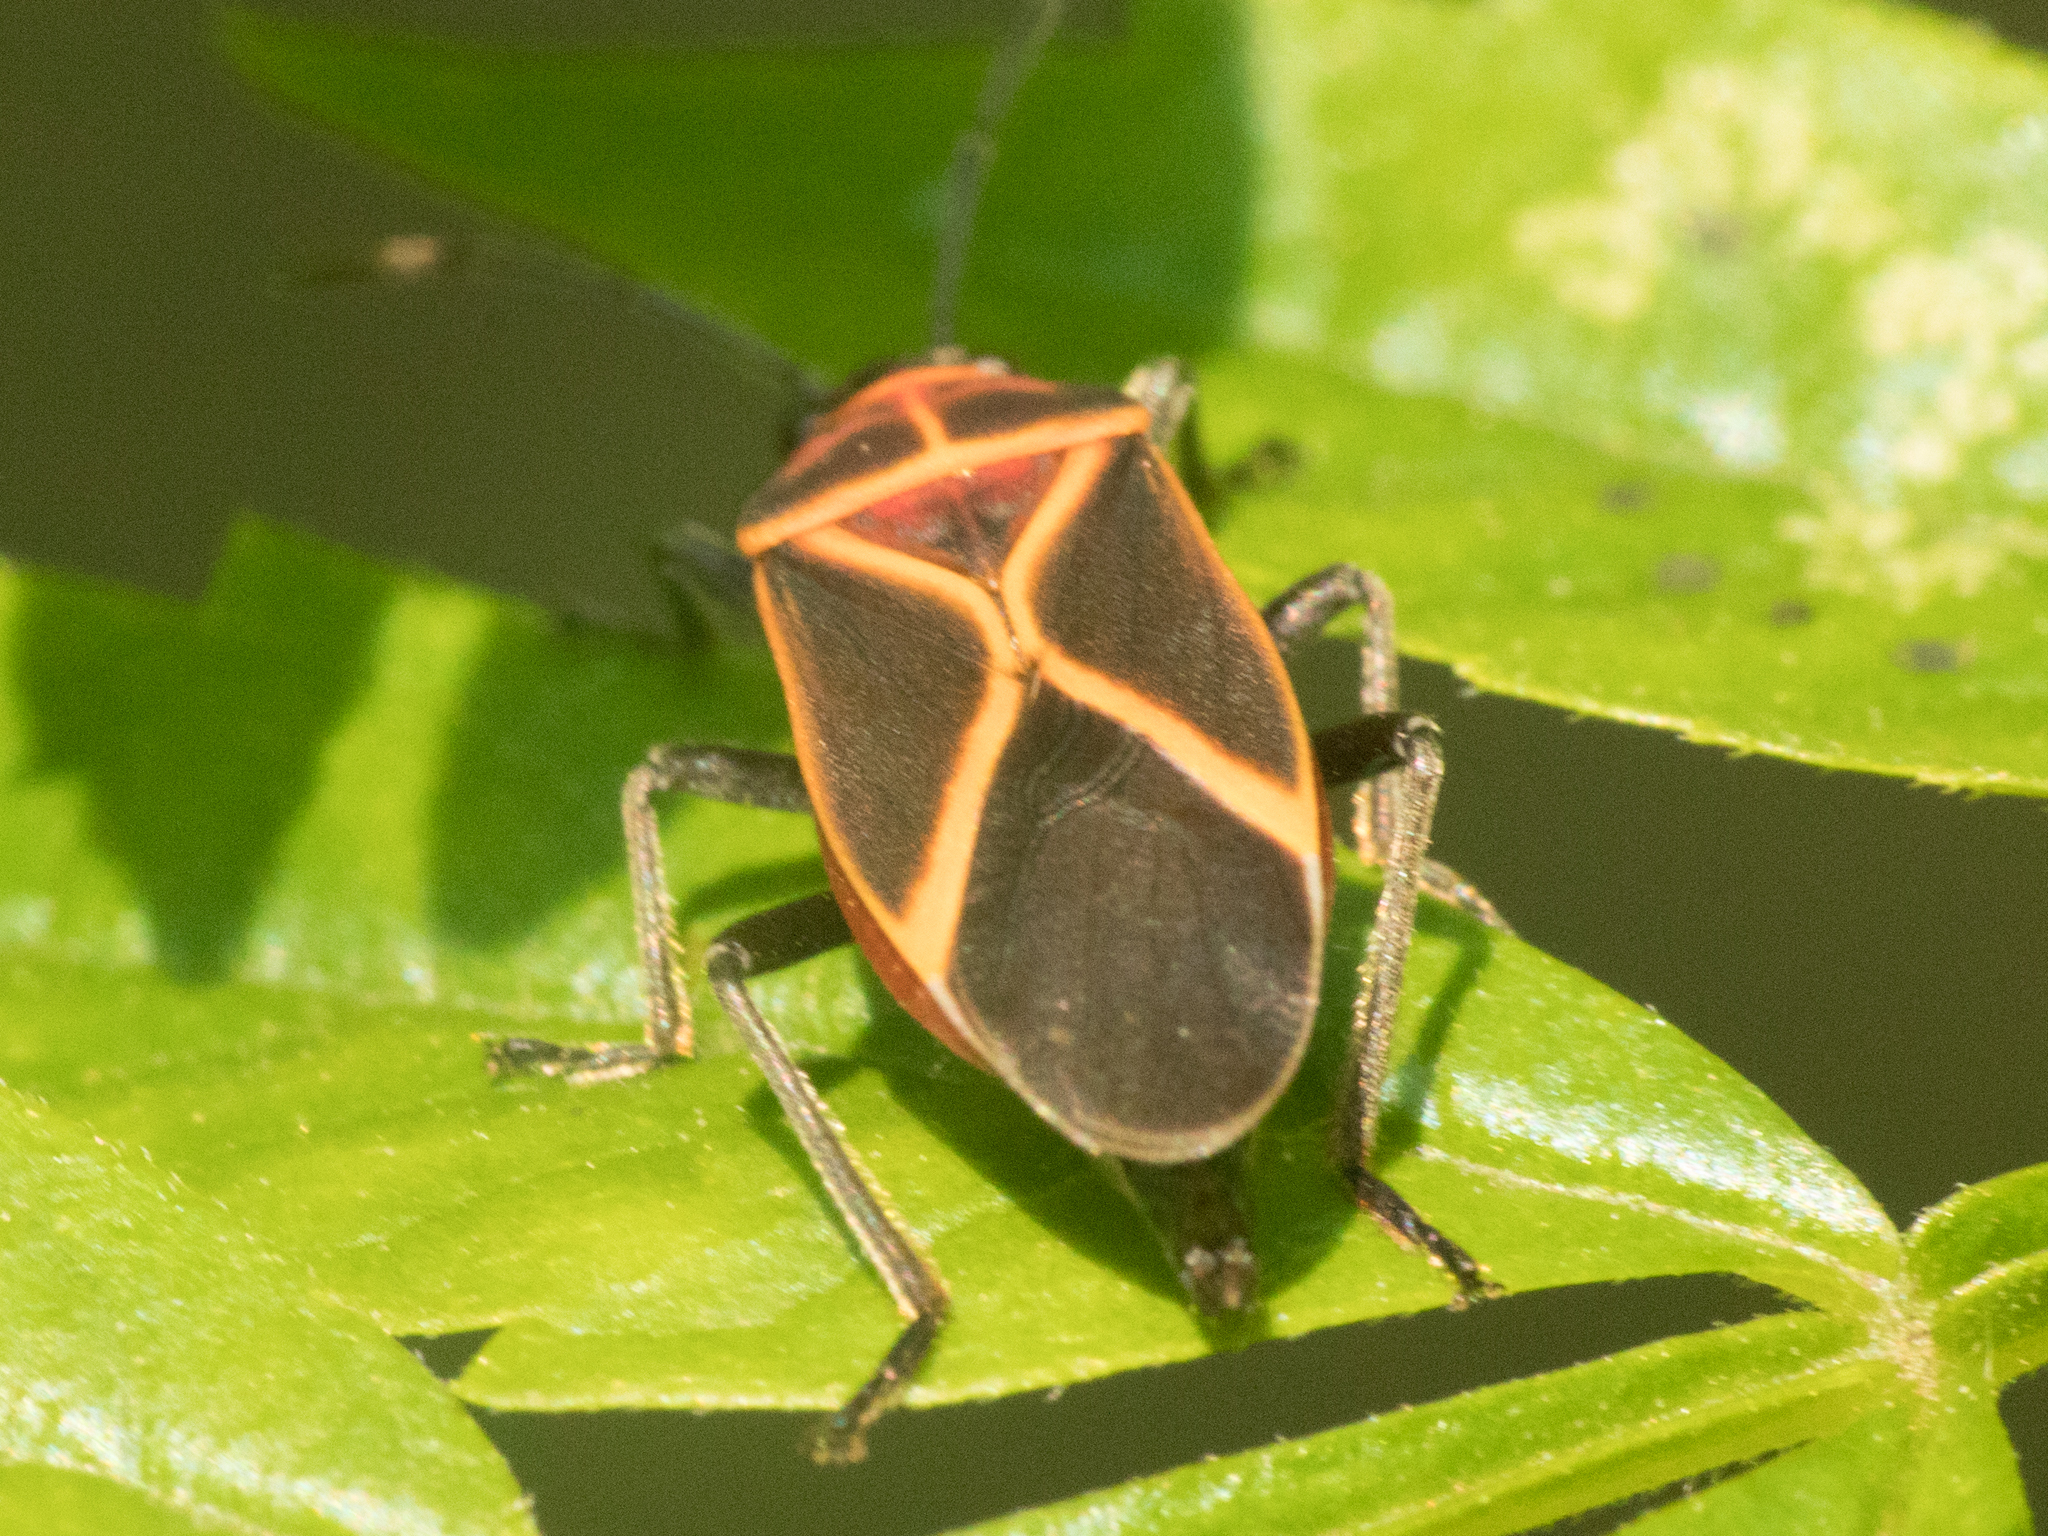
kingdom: Animalia
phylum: Arthropoda
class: Insecta
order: Hemiptera
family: Lygaeidae
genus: Craspeduchus
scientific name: Craspeduchus xanthostaurus
